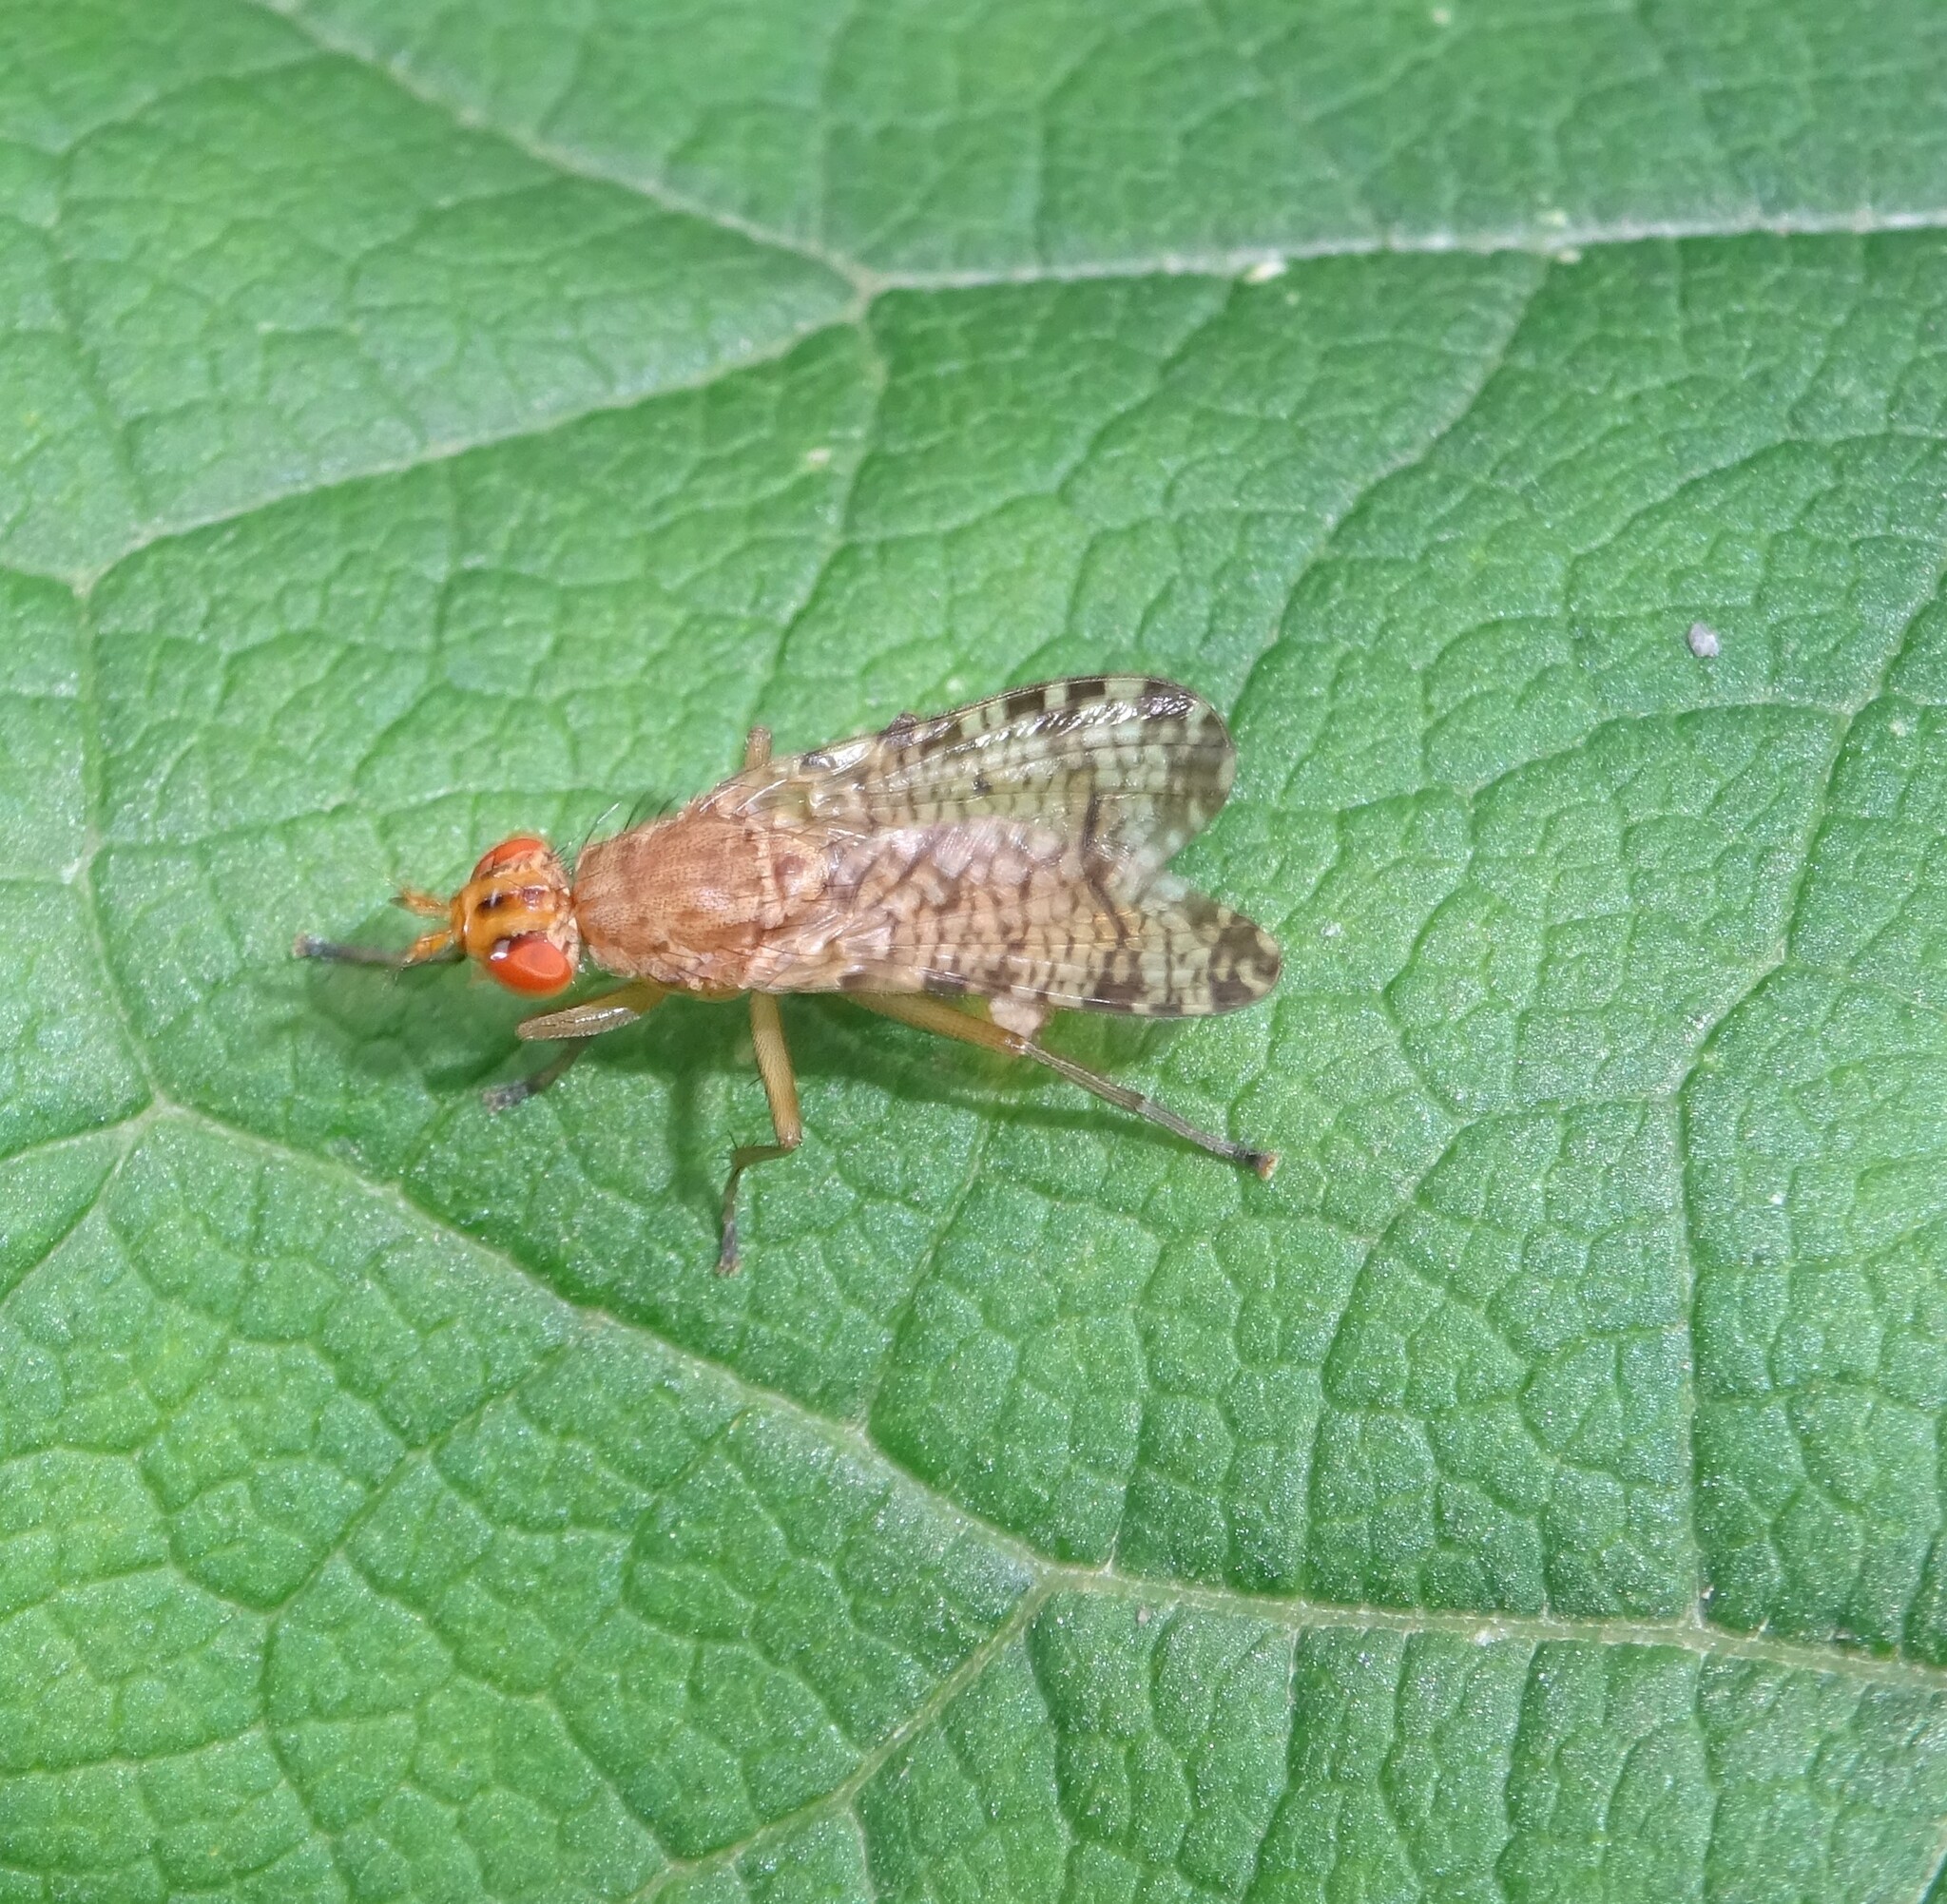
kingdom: Animalia
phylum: Arthropoda
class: Insecta
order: Diptera
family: Sciomyzidae
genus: Euthycera
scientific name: Euthycera chaerophylli
